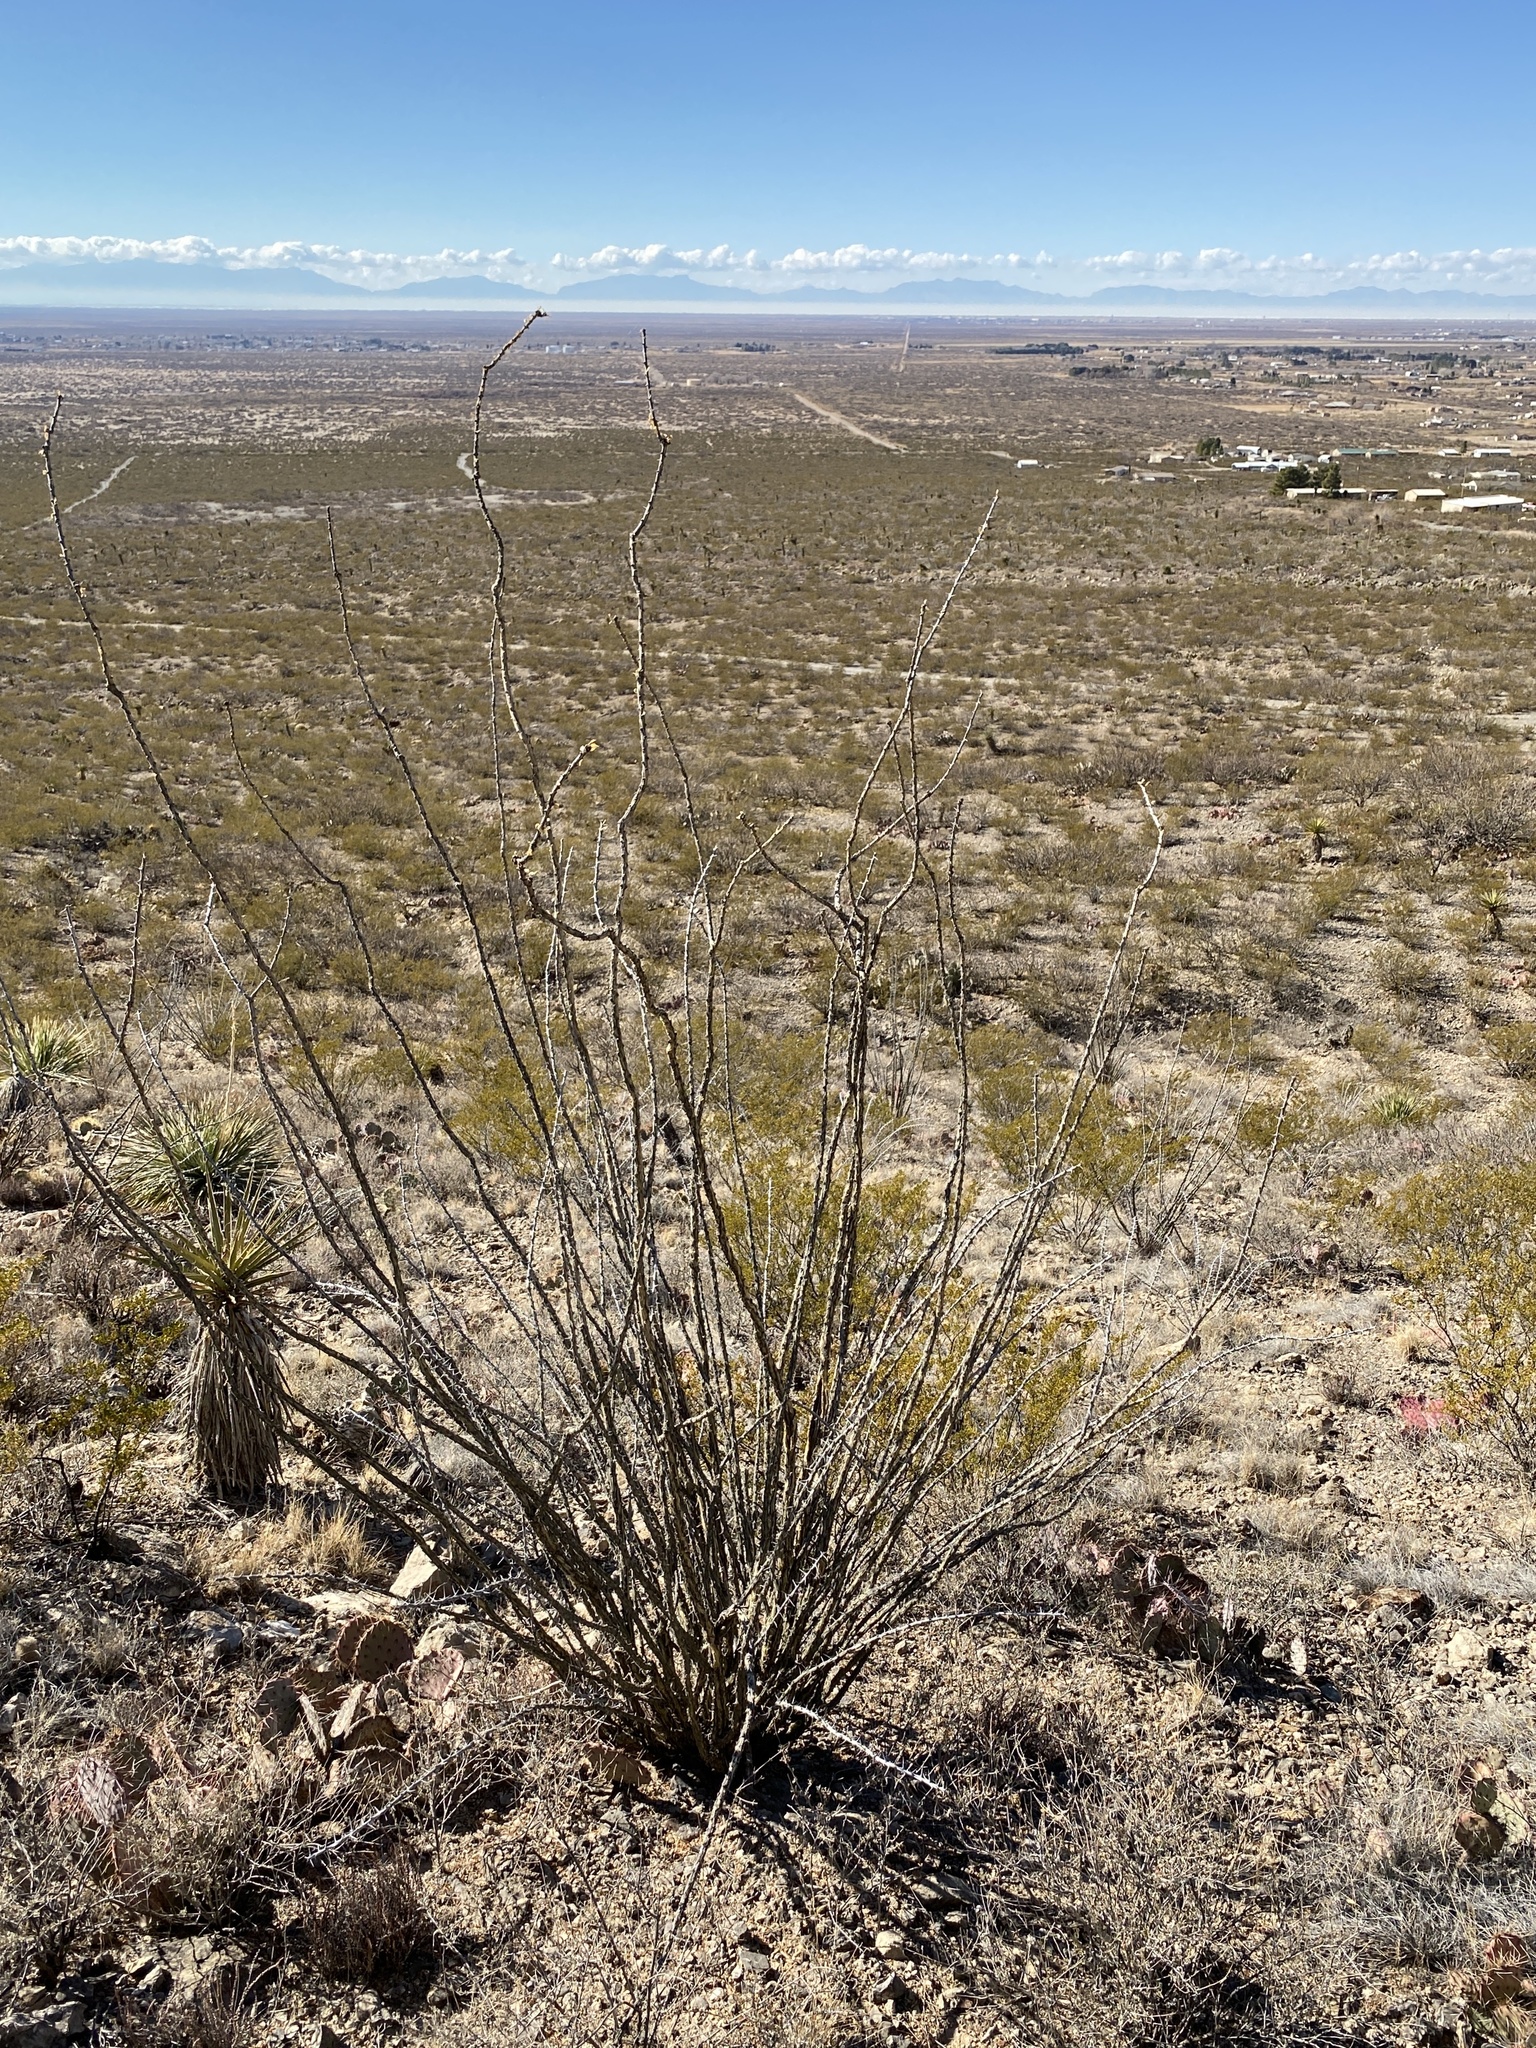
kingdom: Plantae
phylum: Tracheophyta
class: Magnoliopsida
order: Ericales
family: Fouquieriaceae
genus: Fouquieria
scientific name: Fouquieria splendens
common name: Vine-cactus
